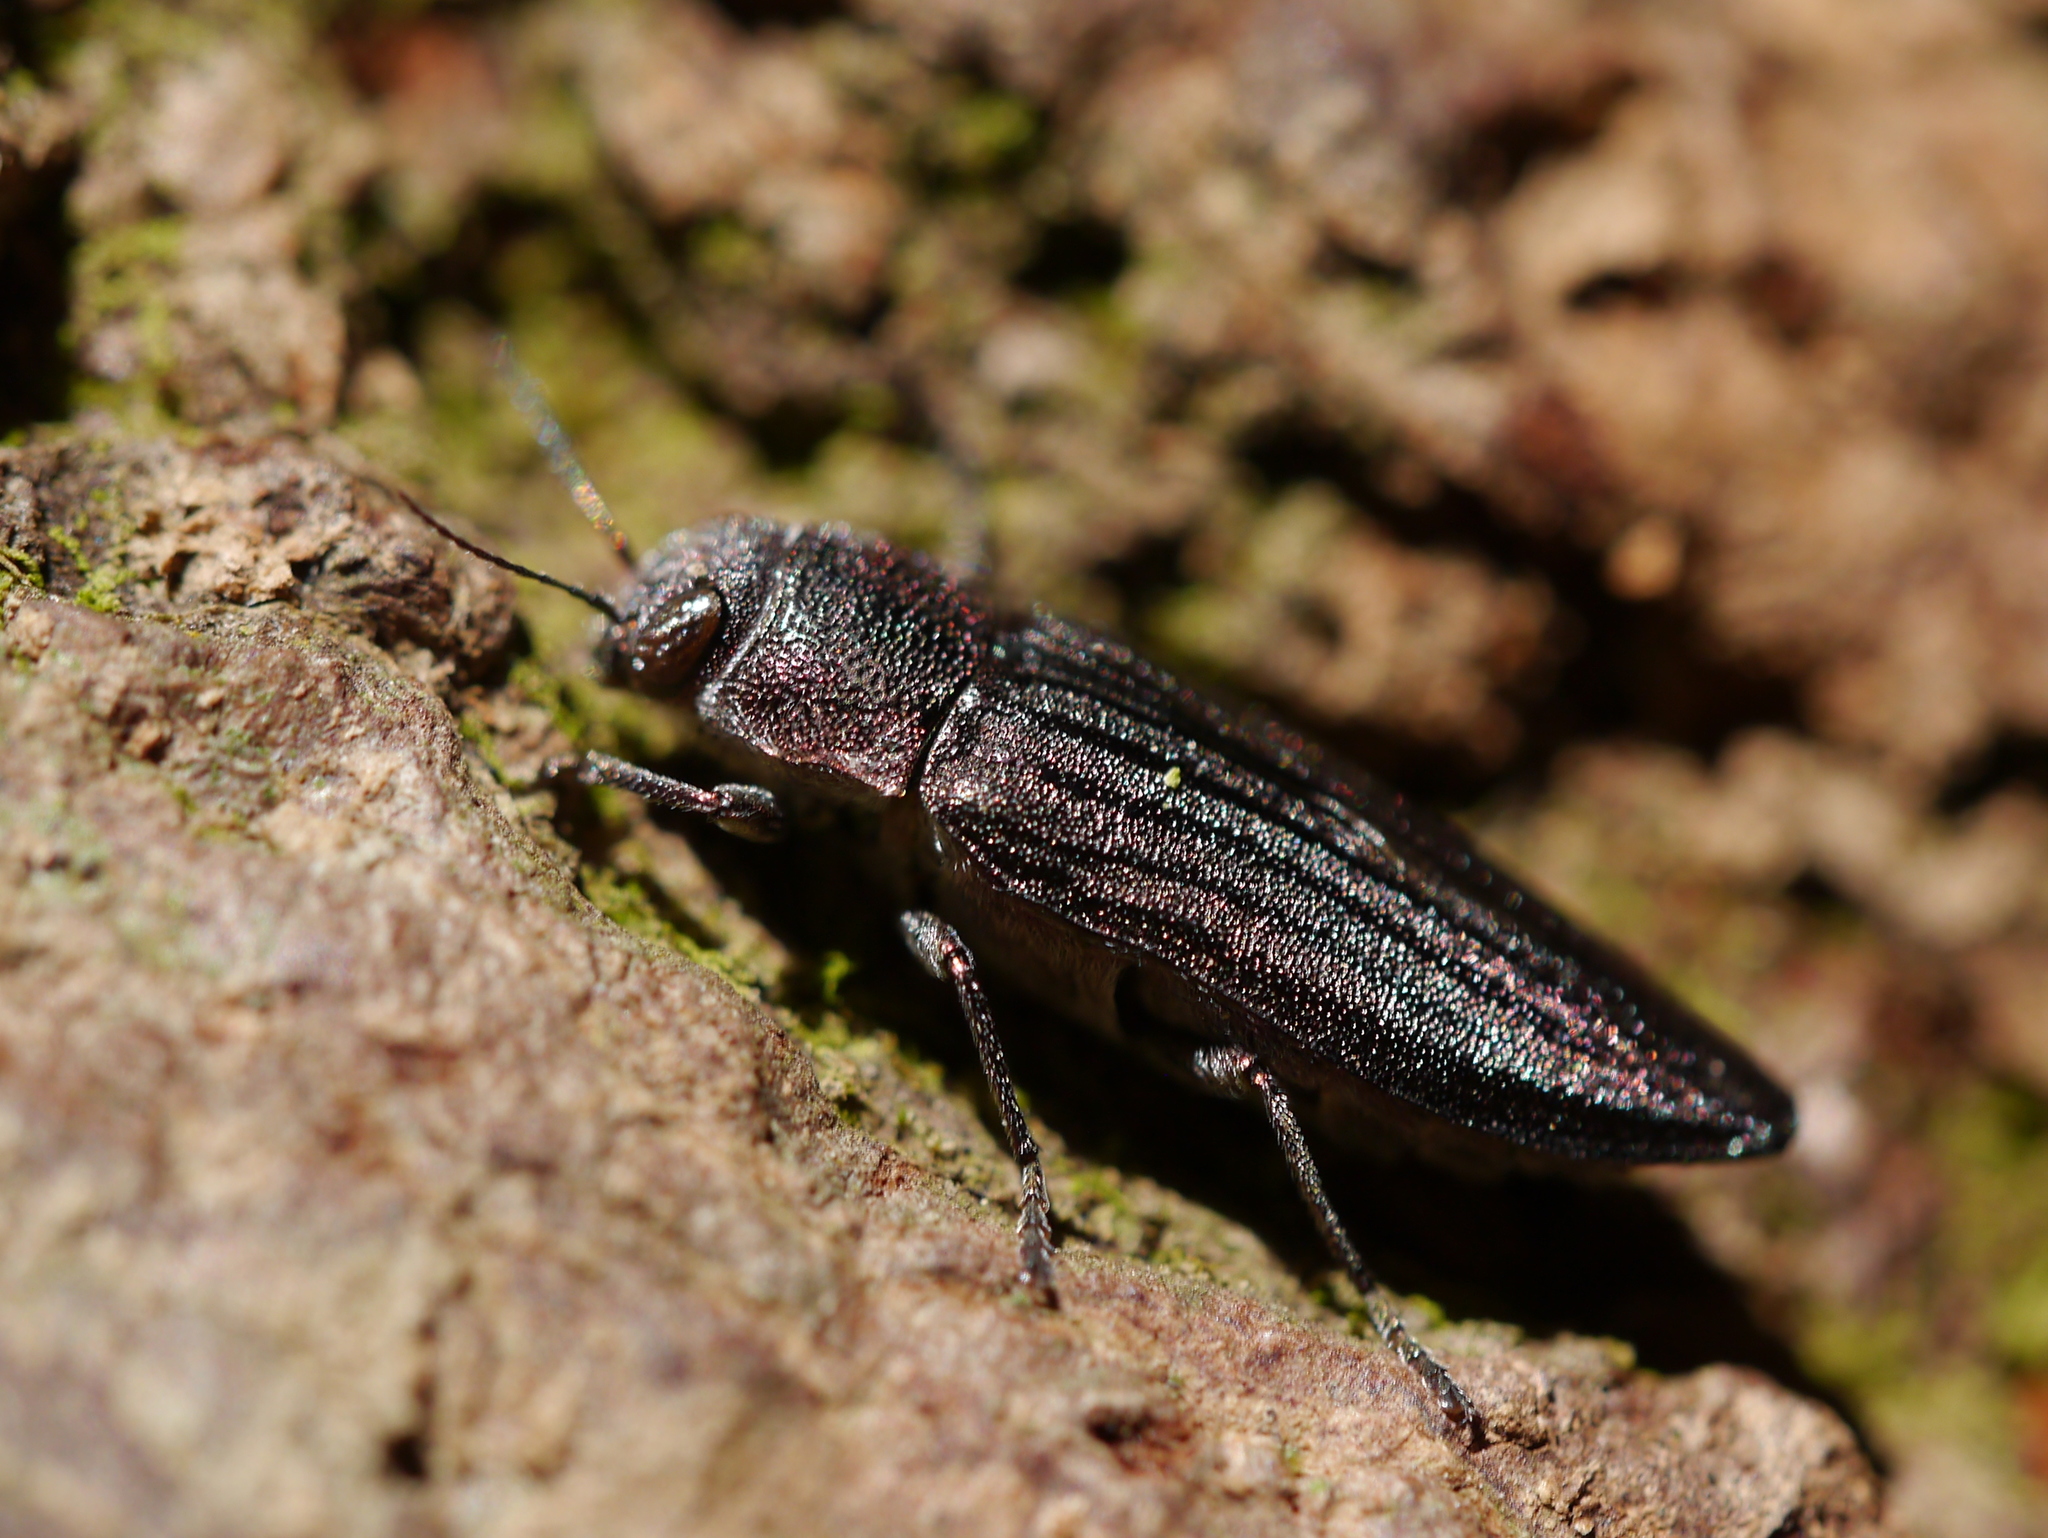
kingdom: Animalia
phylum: Arthropoda
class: Insecta
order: Coleoptera
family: Buprestidae
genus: Buprestis
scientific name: Buprestis striata
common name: Striated jewel beetle
